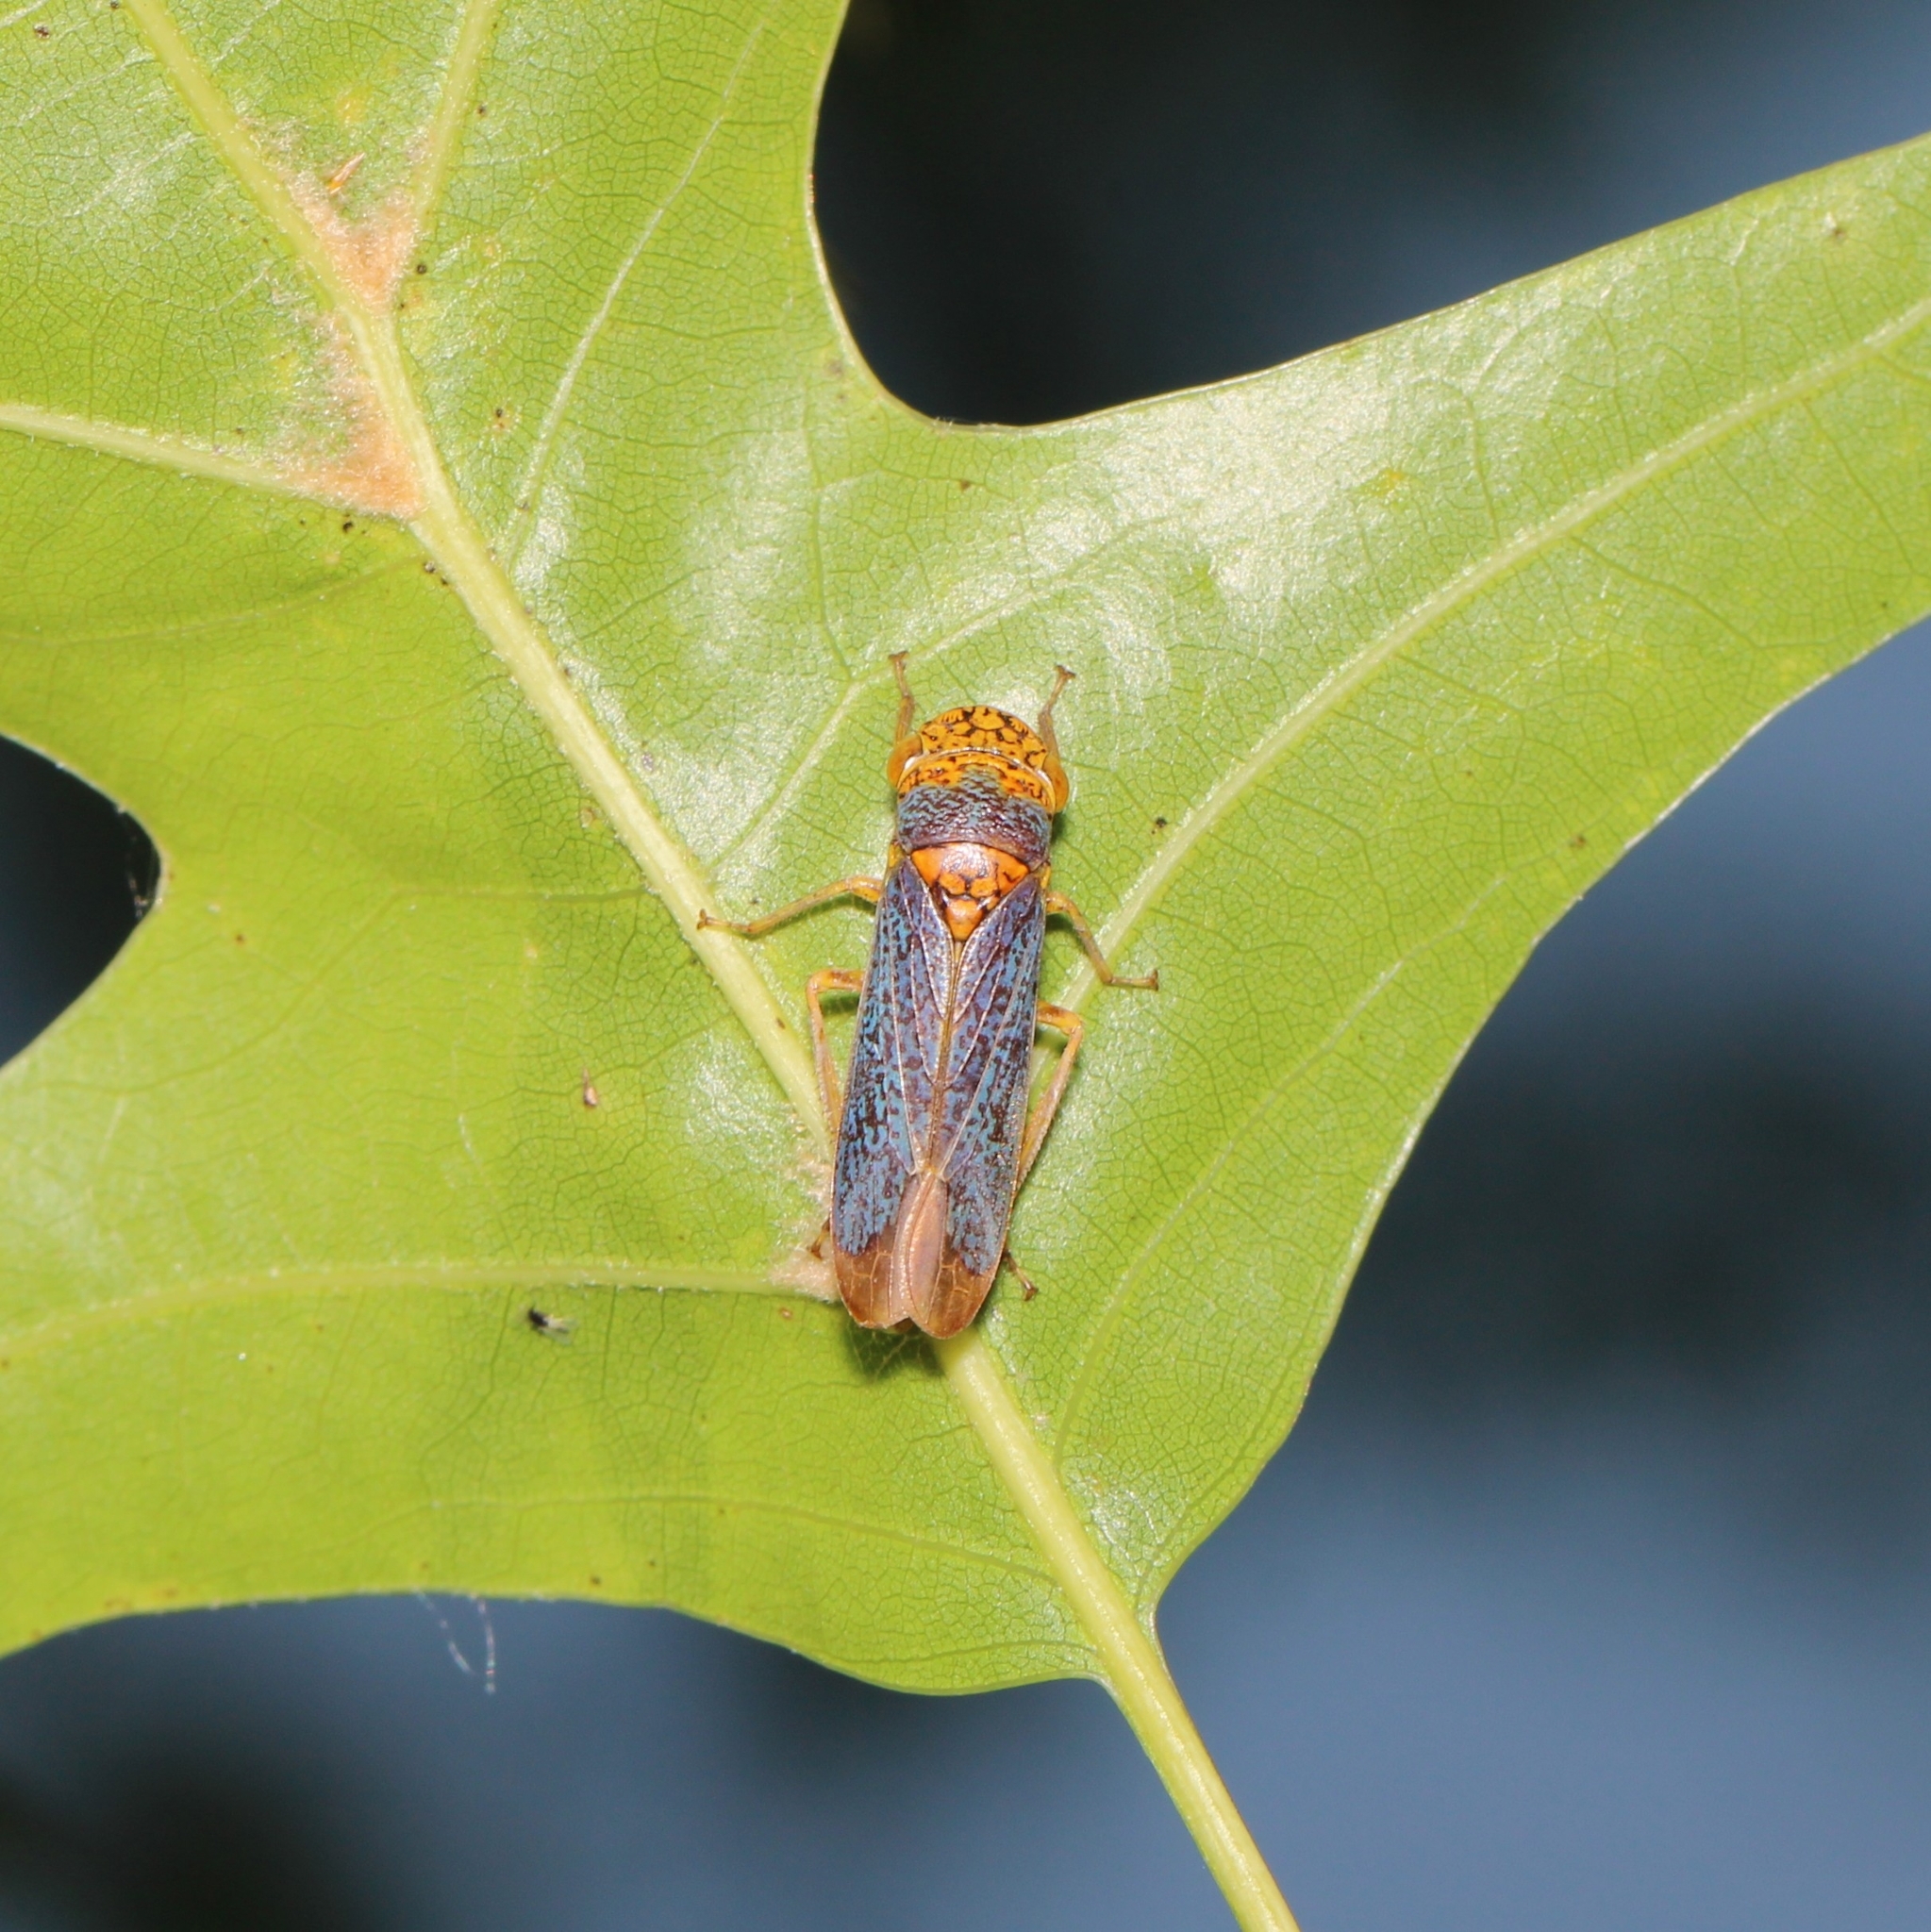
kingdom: Animalia
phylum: Arthropoda
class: Insecta
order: Hemiptera
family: Cicadellidae
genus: Oncometopia
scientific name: Oncometopia orbona
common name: Broad-headed sharpshooter
